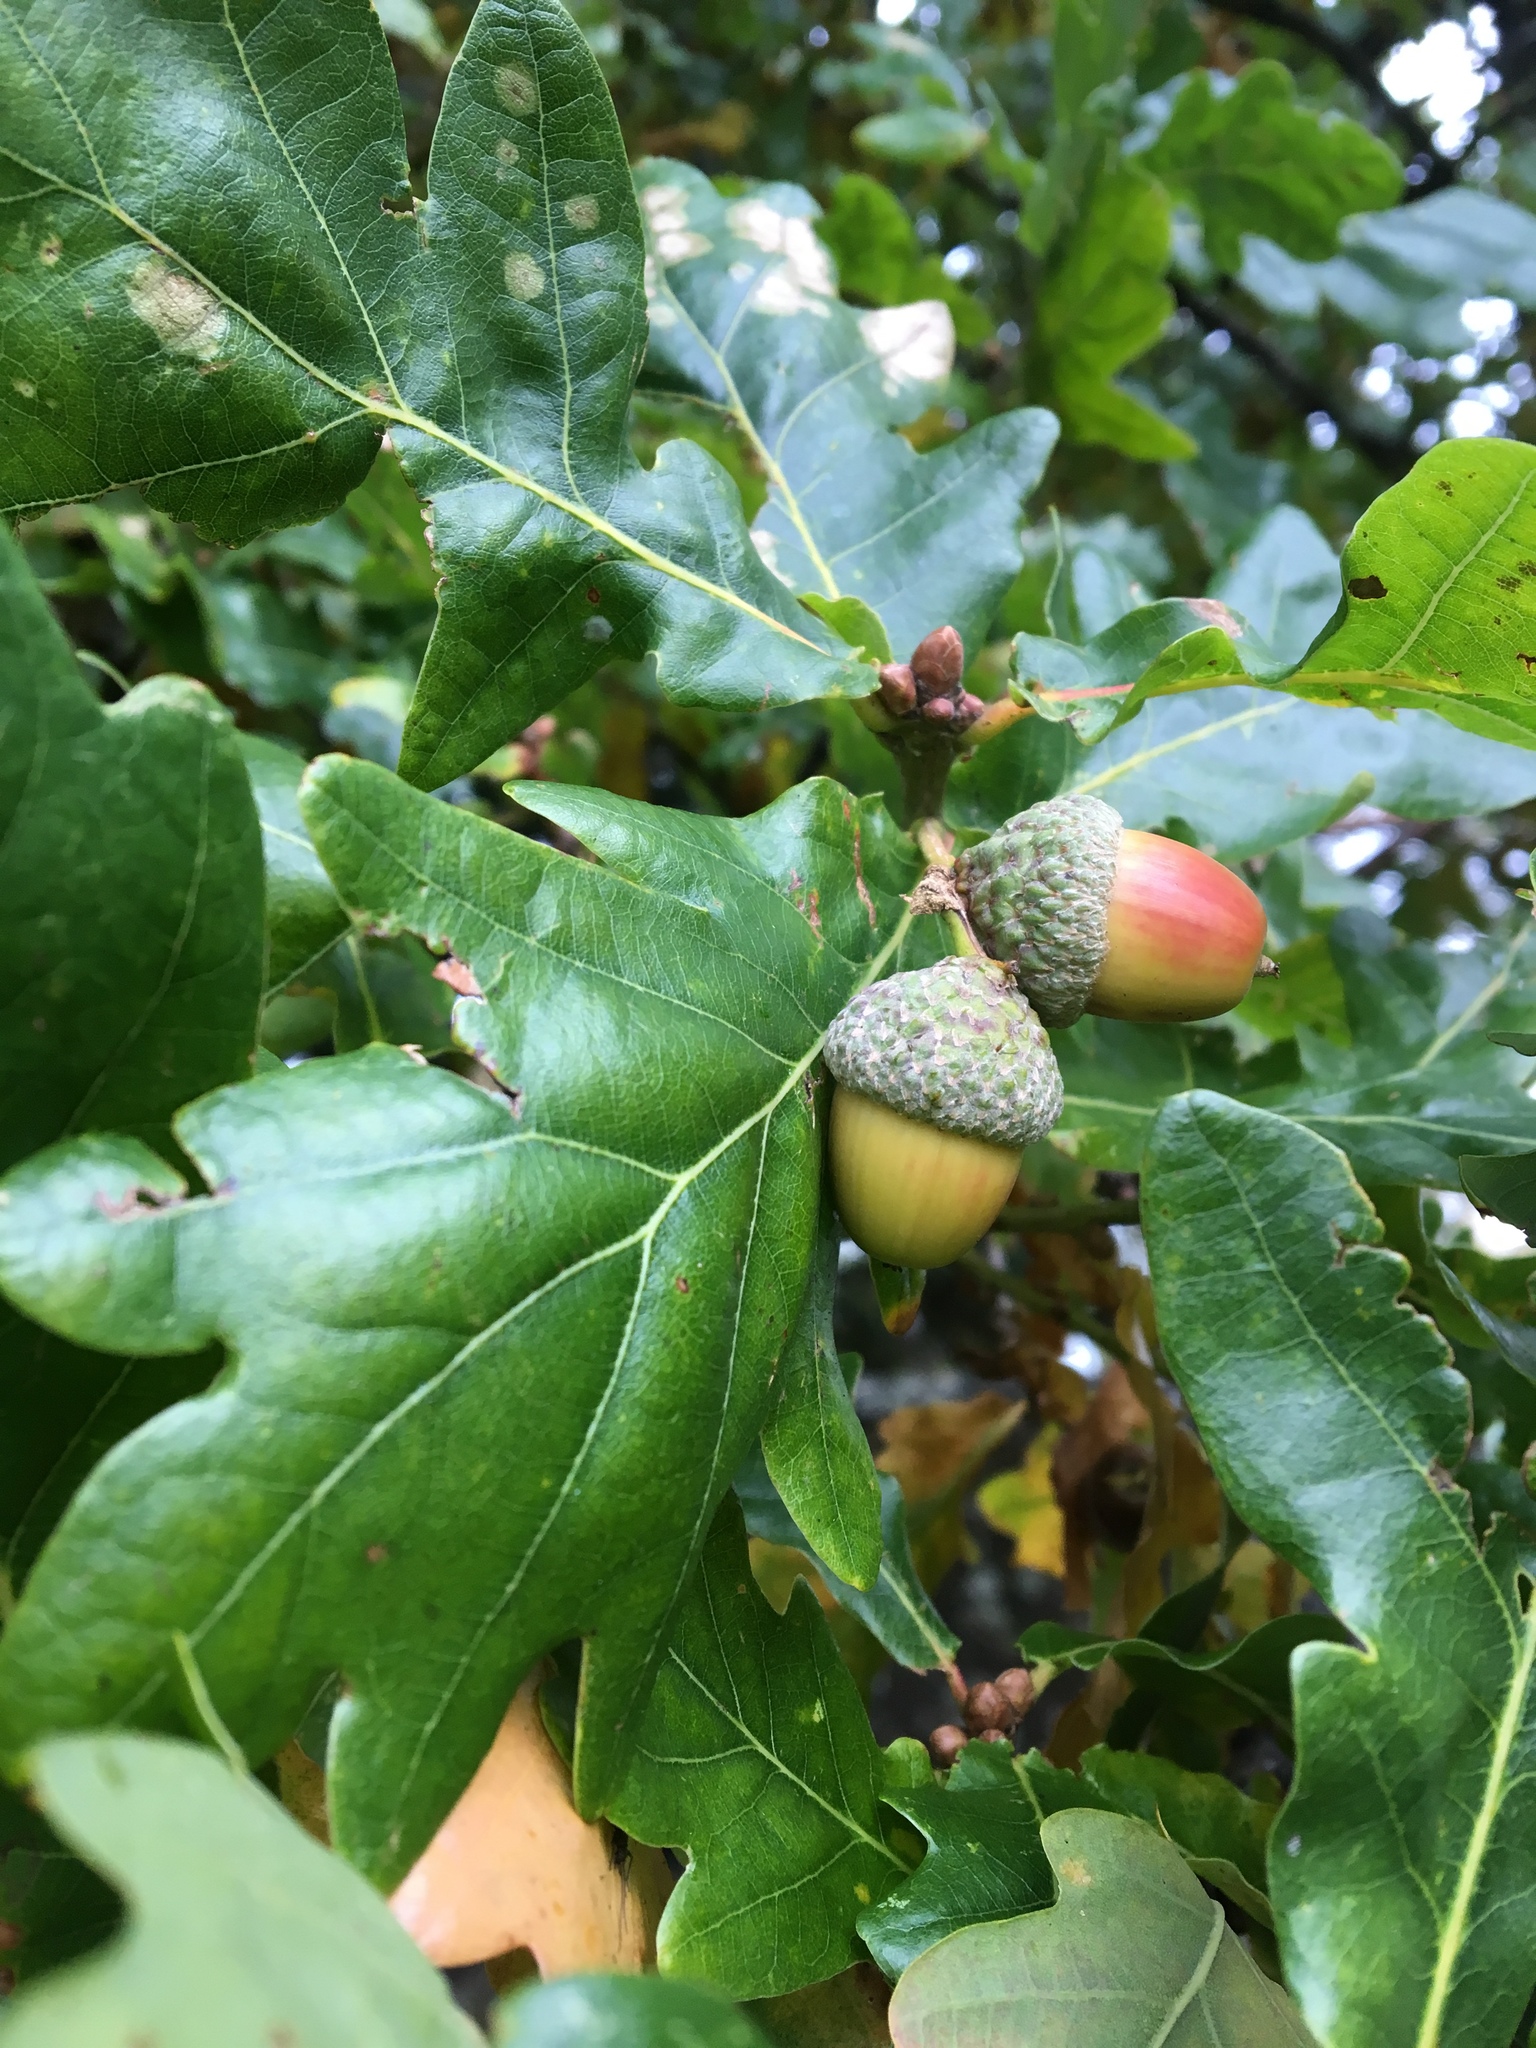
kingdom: Plantae
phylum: Tracheophyta
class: Magnoliopsida
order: Fagales
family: Fagaceae
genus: Quercus
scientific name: Quercus robur
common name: Pedunculate oak
